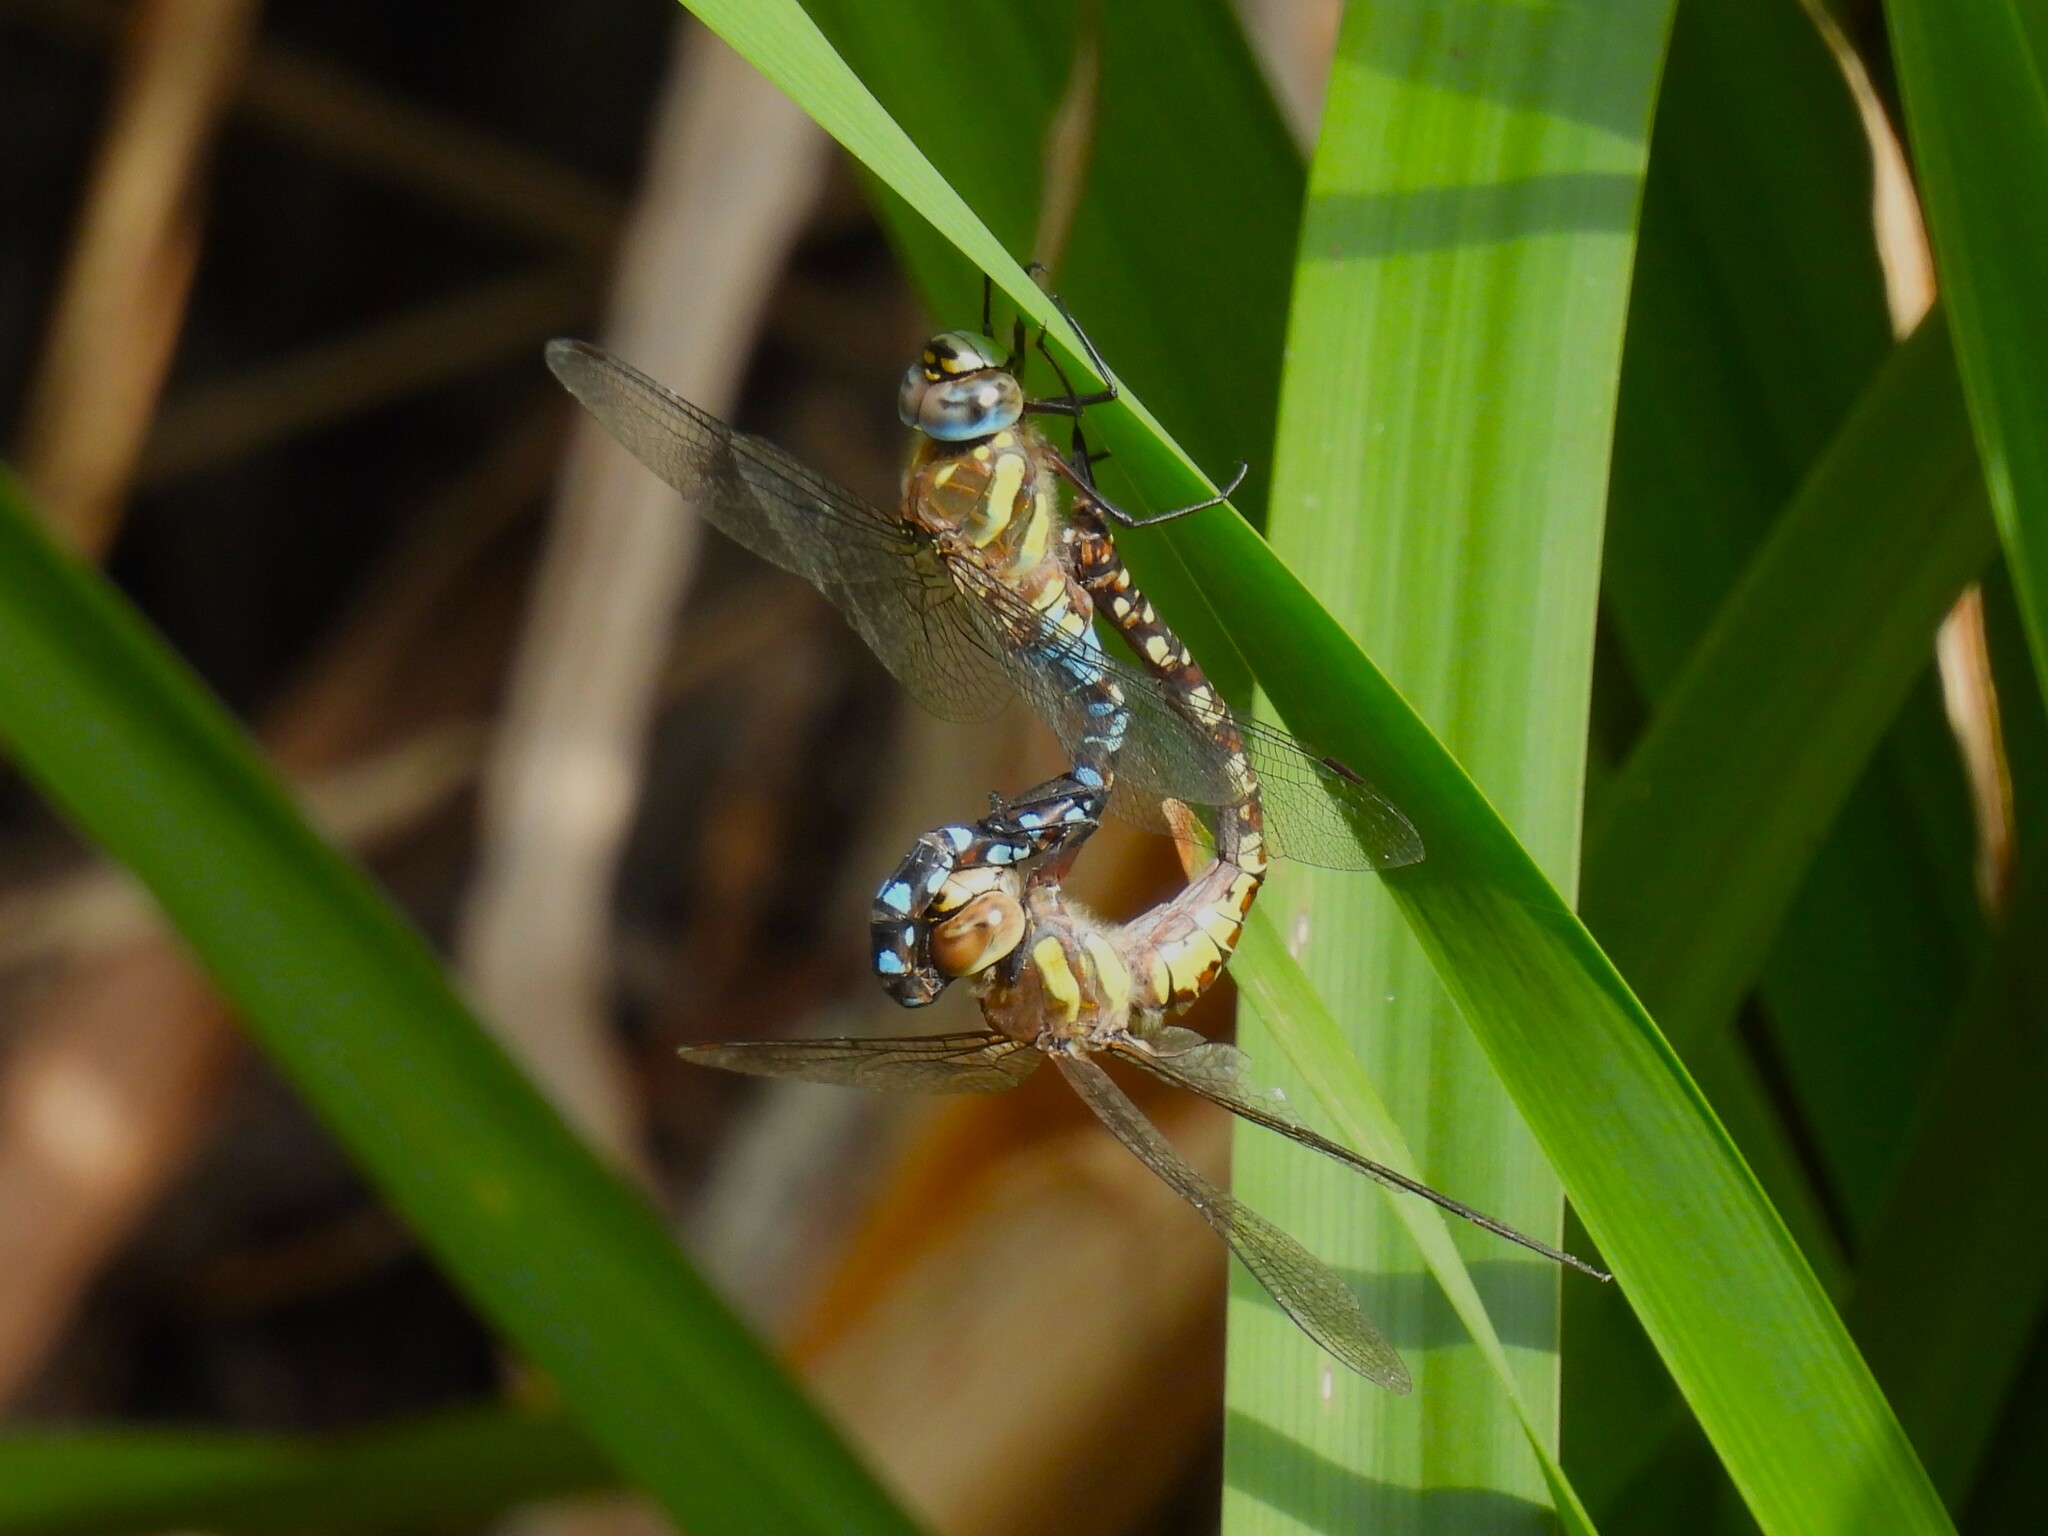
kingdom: Animalia
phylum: Arthropoda
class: Insecta
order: Odonata
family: Aeshnidae
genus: Aeshna
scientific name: Aeshna mixta
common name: Migrant hawker
